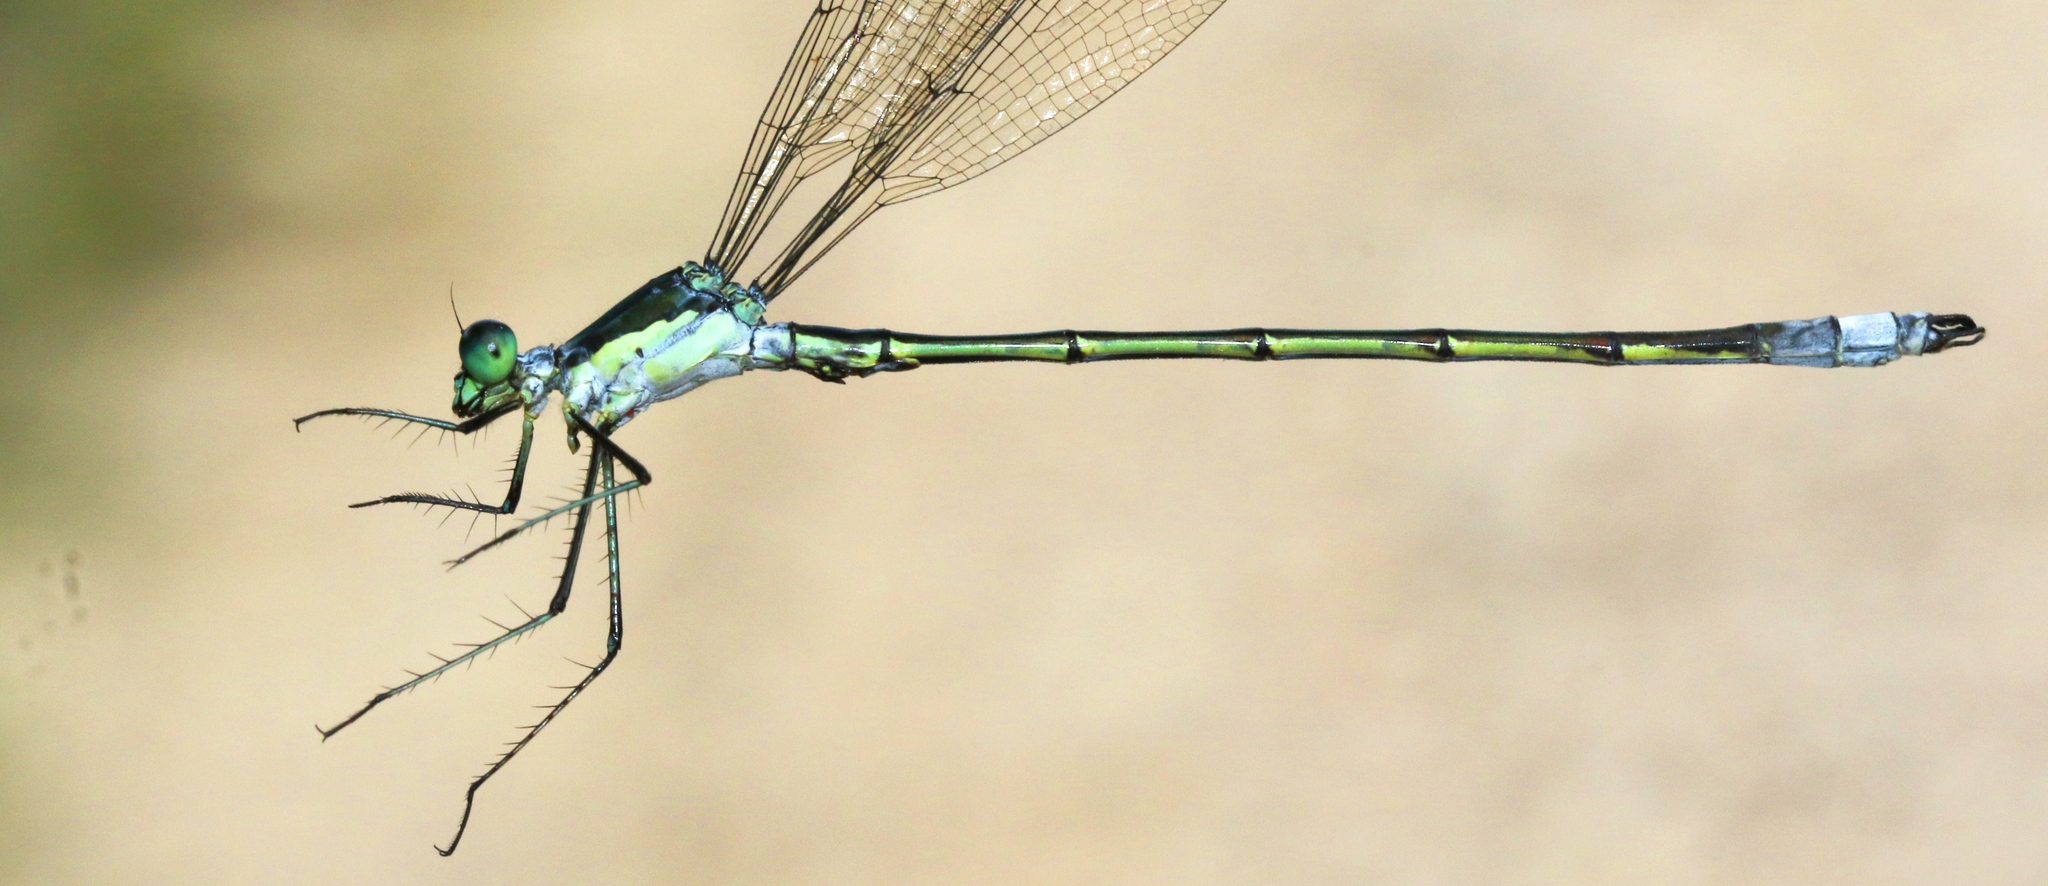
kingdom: Animalia
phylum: Arthropoda
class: Insecta
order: Odonata
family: Lestidae
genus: Lestes
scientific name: Lestes inaequalis
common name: Elegant spreadwing
